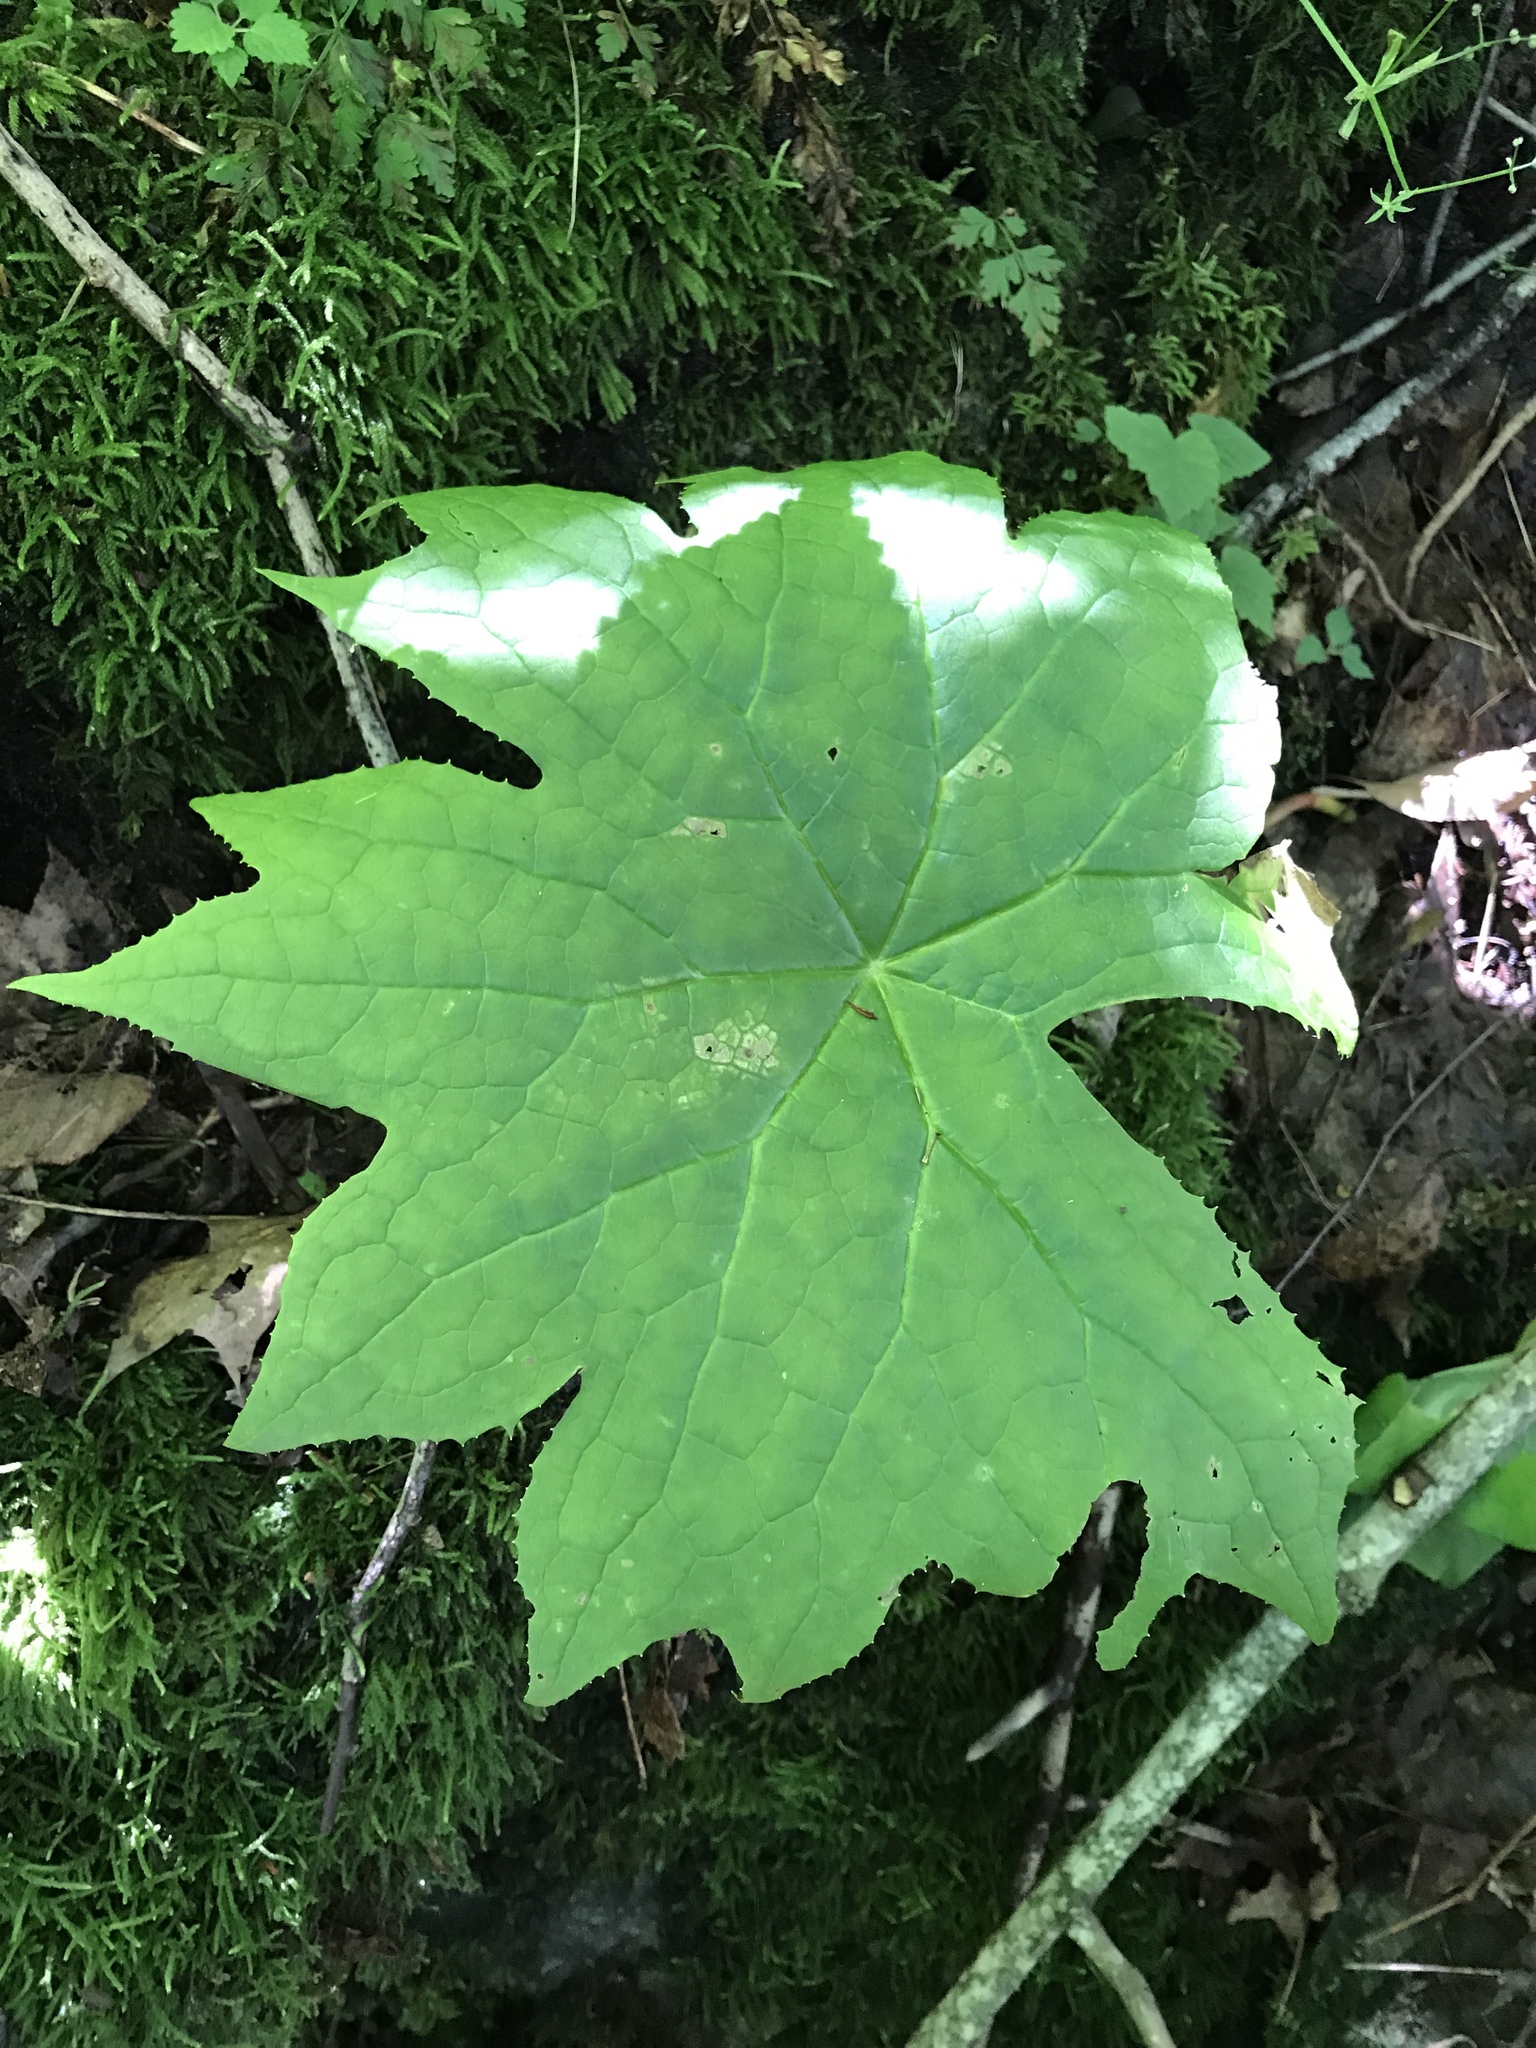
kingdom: Plantae
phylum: Tracheophyta
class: Magnoliopsida
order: Ranunculales
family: Berberidaceae
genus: Diphylleia
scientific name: Diphylleia cymosa
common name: Umbrella-leaf
